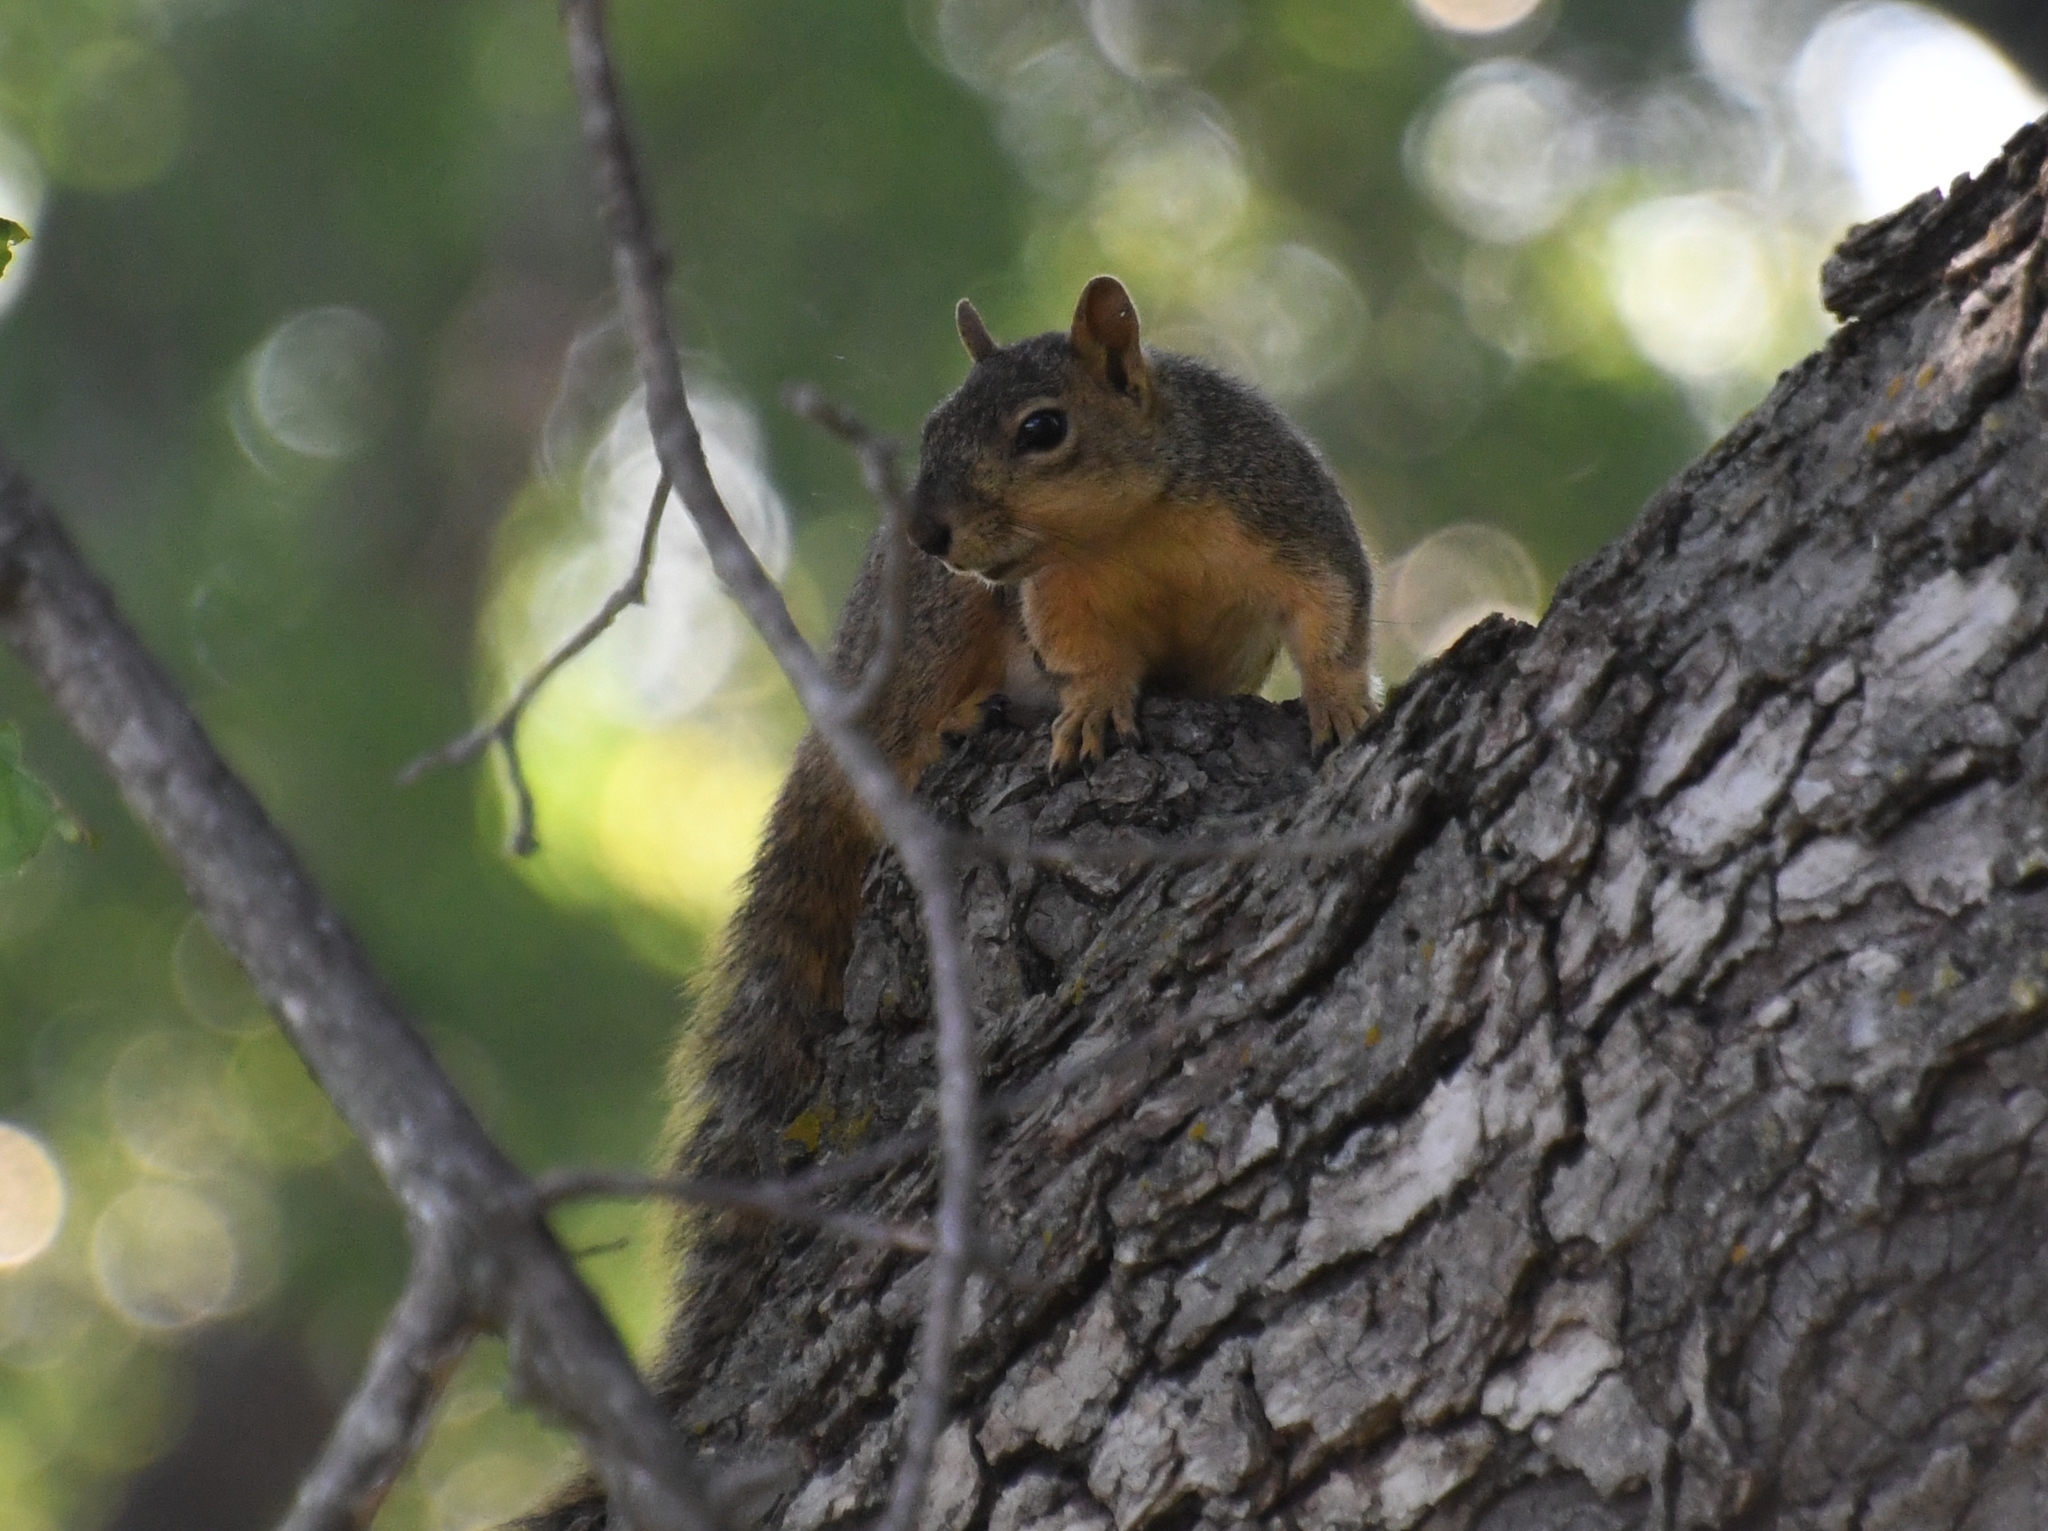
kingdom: Animalia
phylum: Chordata
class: Mammalia
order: Rodentia
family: Sciuridae
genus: Sciurus
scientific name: Sciurus niger
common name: Fox squirrel
